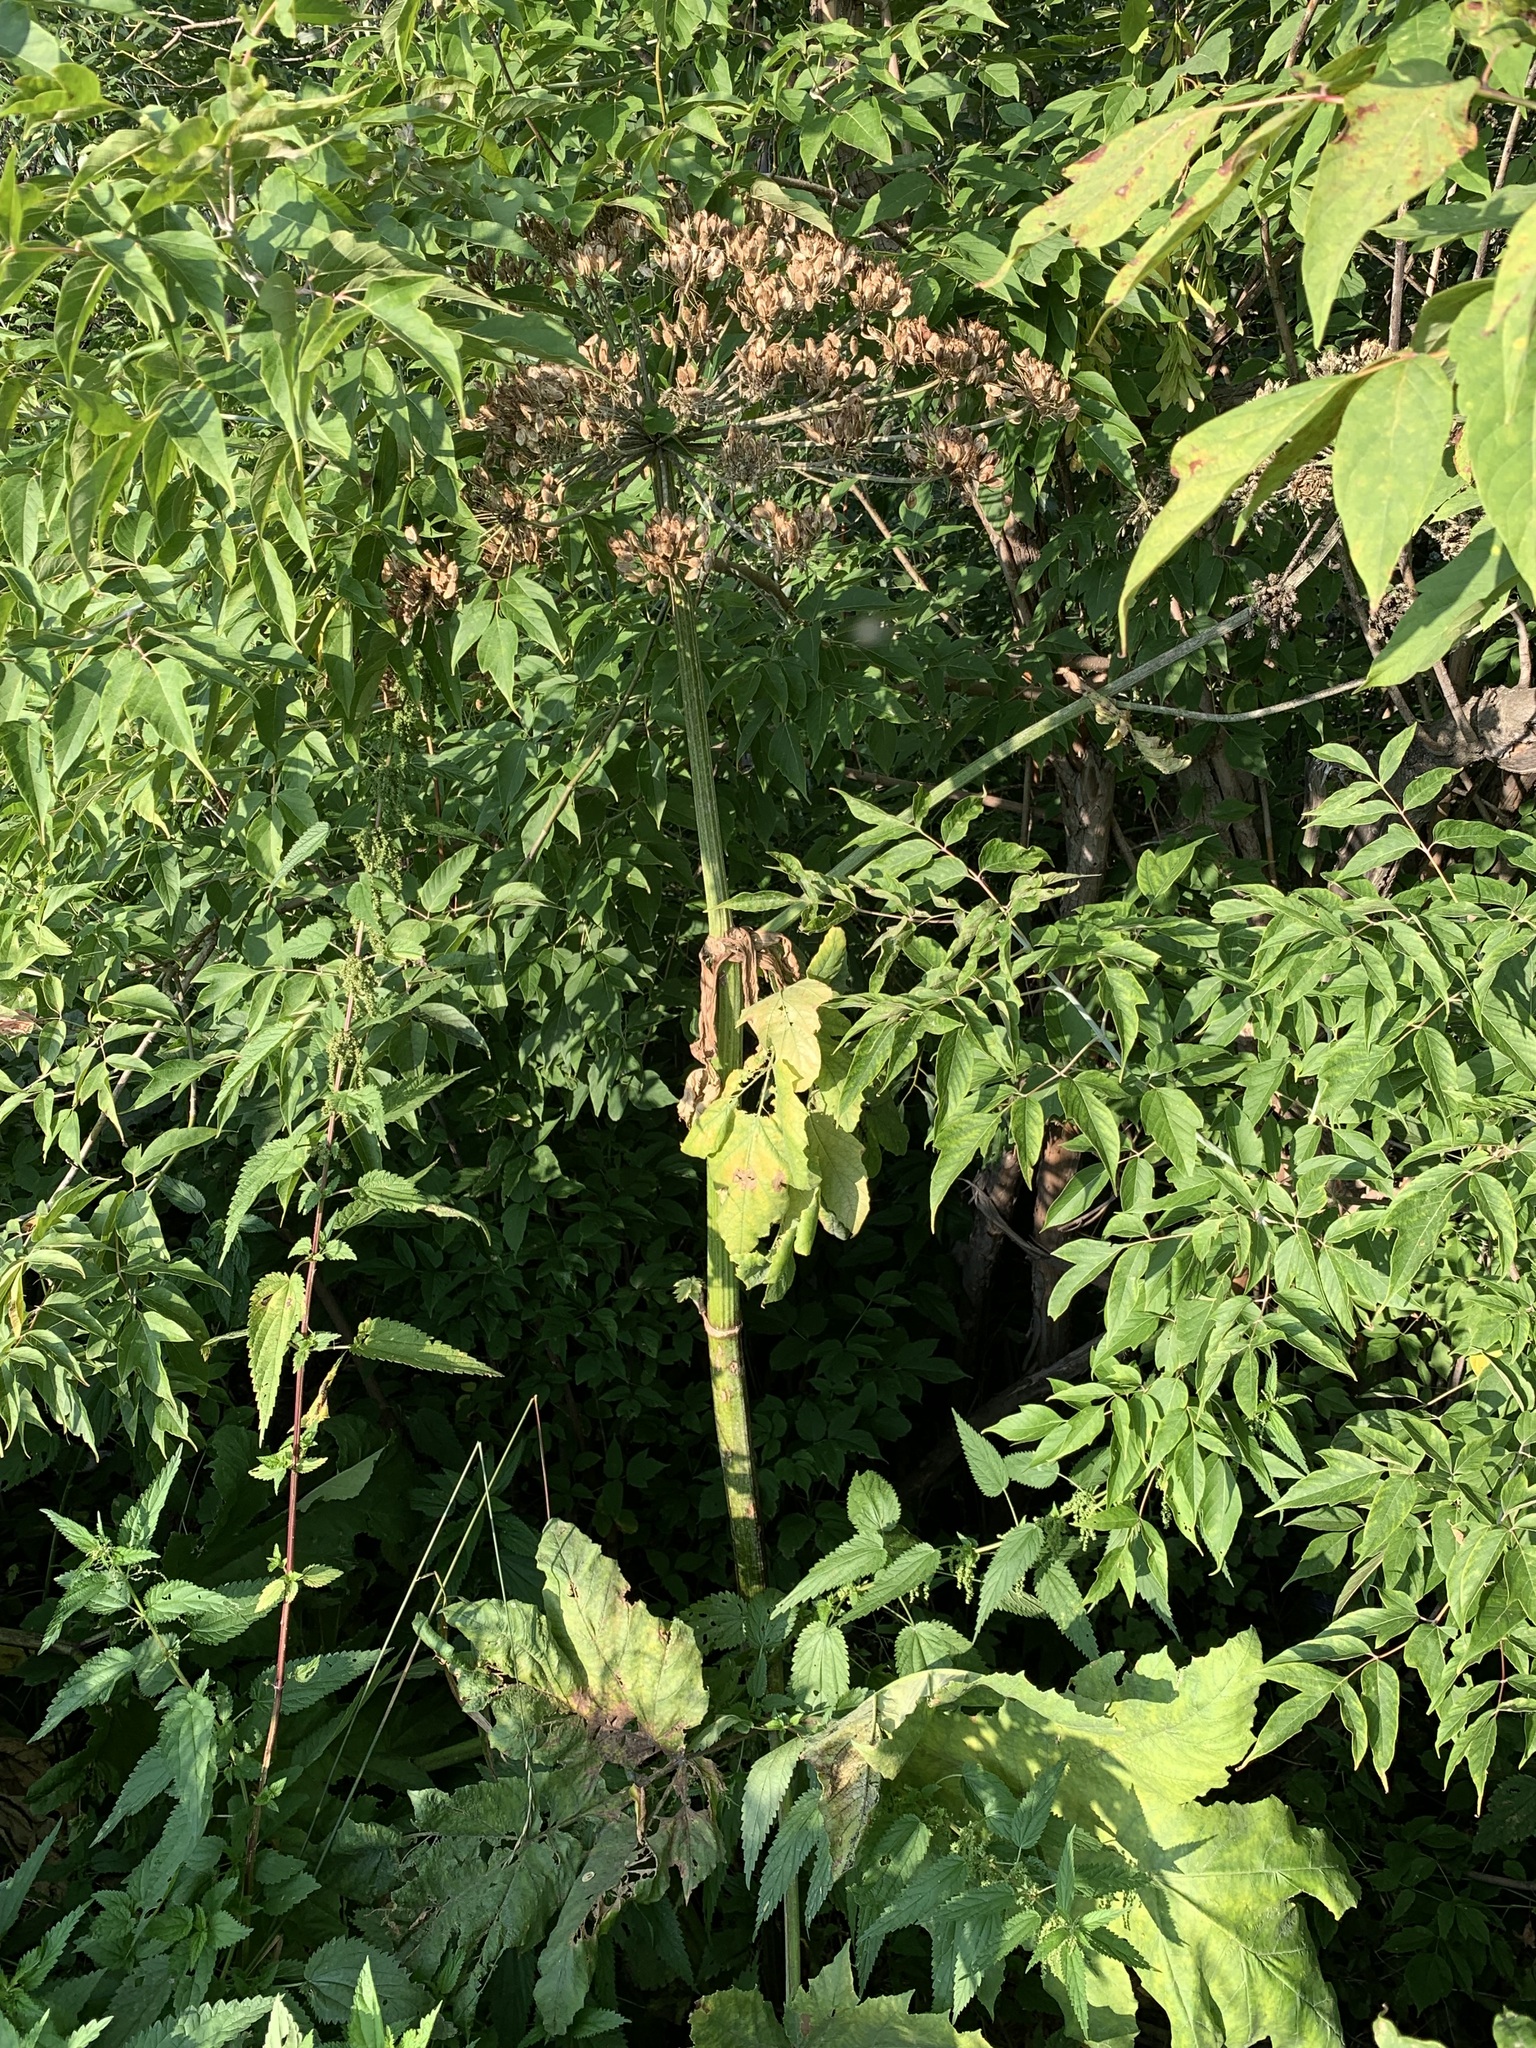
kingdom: Plantae
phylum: Tracheophyta
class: Magnoliopsida
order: Apiales
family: Apiaceae
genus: Heracleum
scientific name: Heracleum sosnowskyi
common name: Sosnowsky's hogweed
